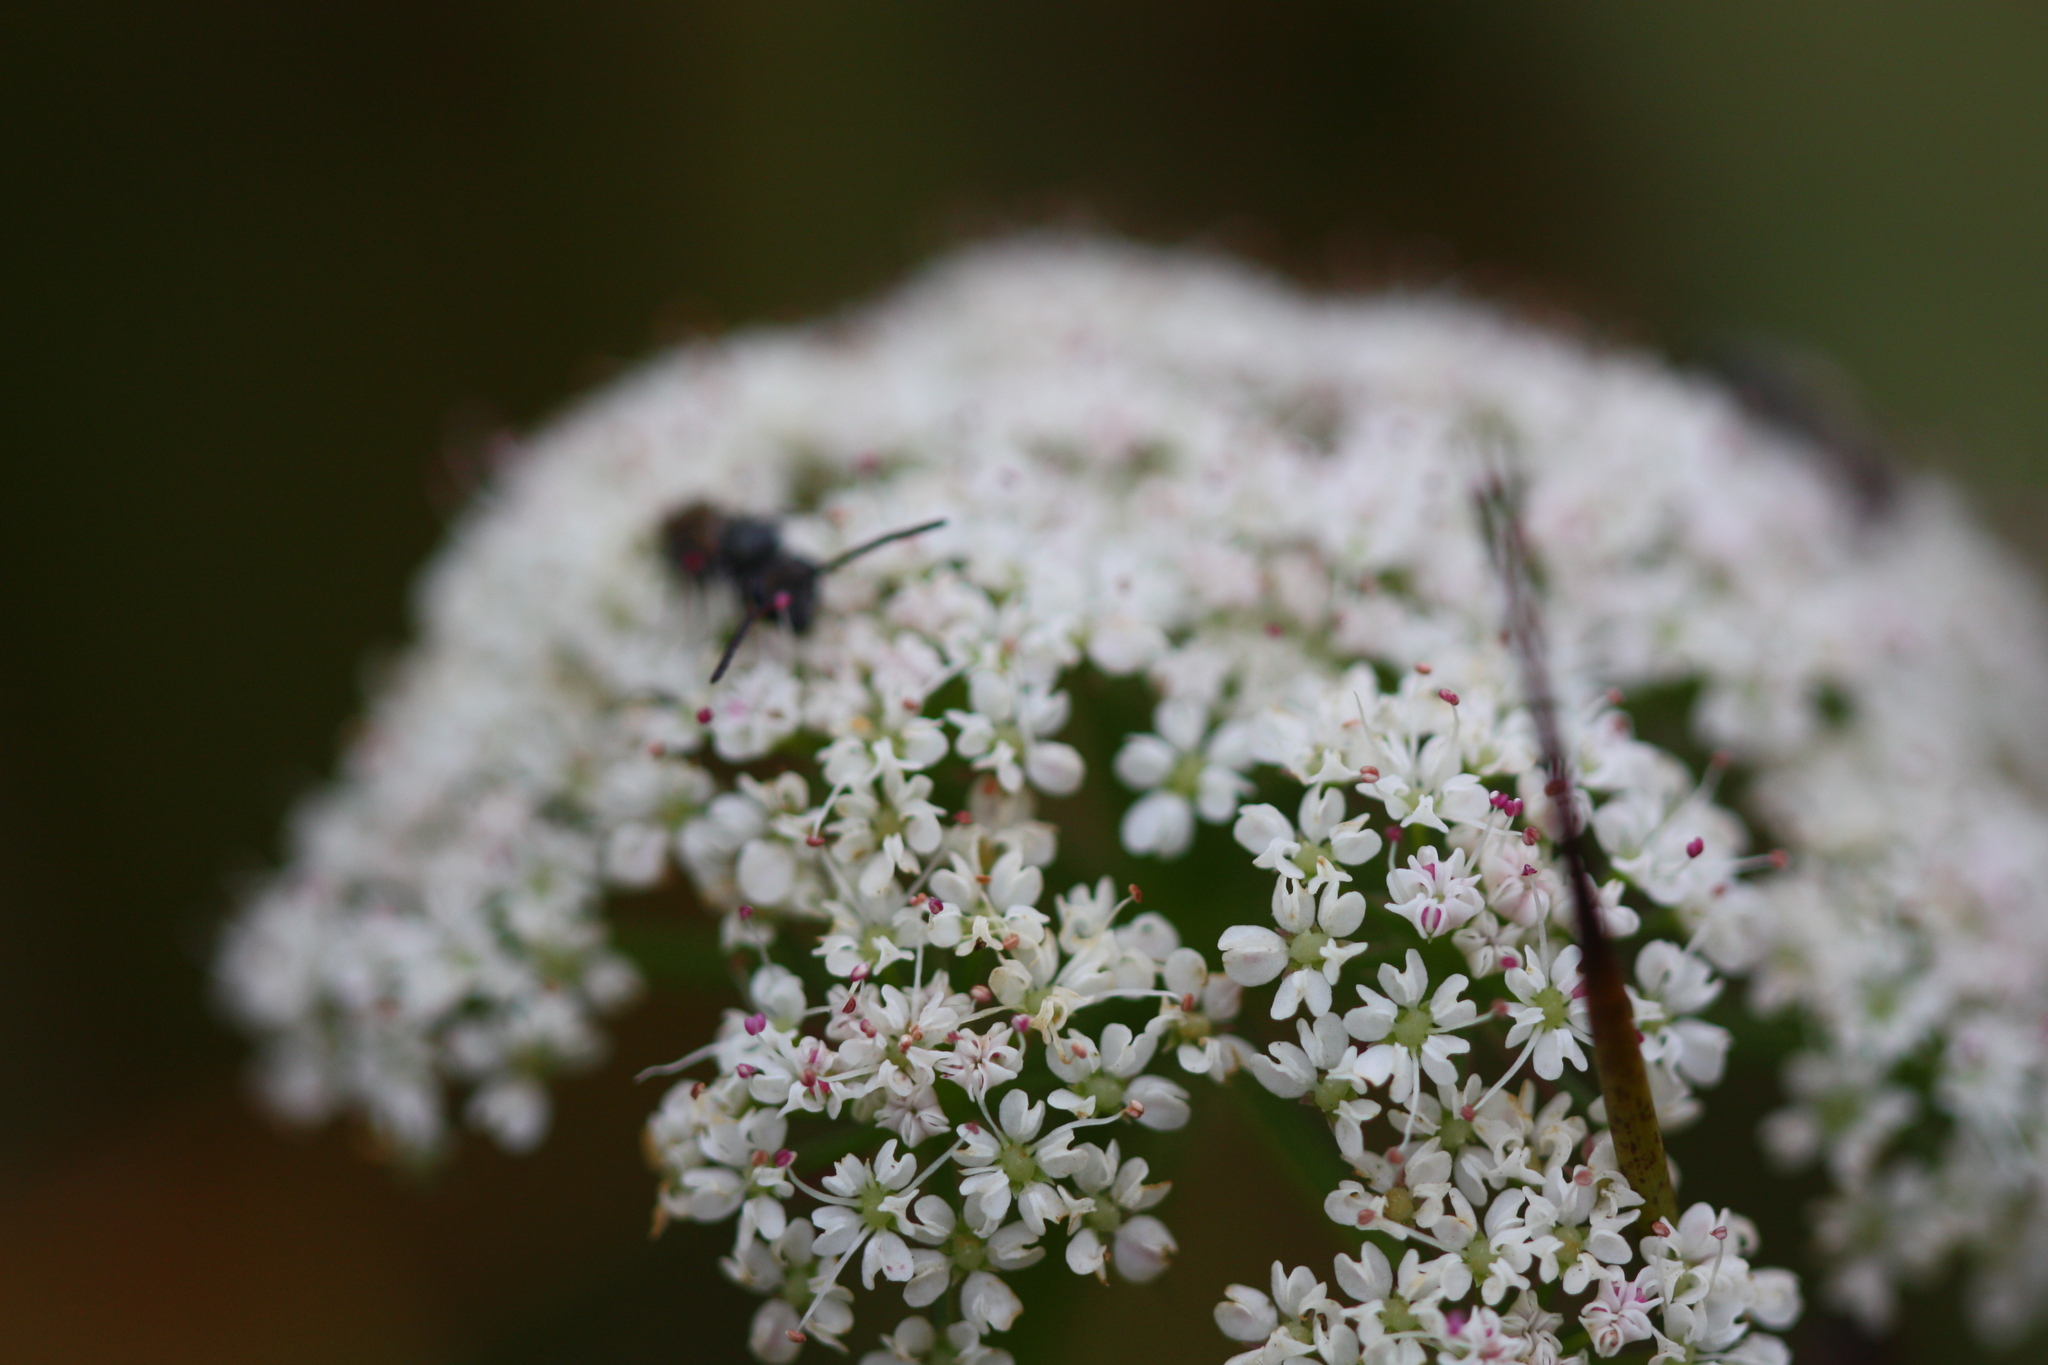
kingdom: Plantae
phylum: Tracheophyta
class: Magnoliopsida
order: Apiales
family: Apiaceae
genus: Oenanthe
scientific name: Oenanthe sarmentosa
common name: American water-parsley
